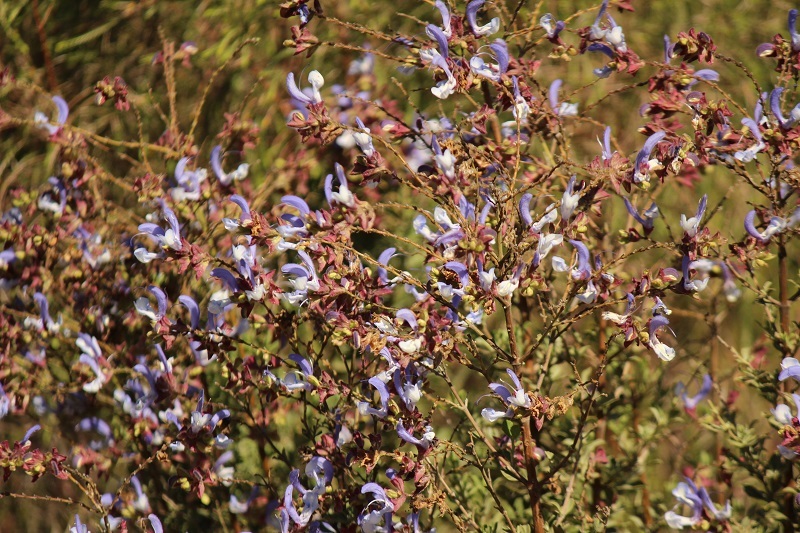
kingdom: Plantae
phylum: Tracheophyta
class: Magnoliopsida
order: Lamiales
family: Lamiaceae
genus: Salvia
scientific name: Salvia chamelaeagnea
